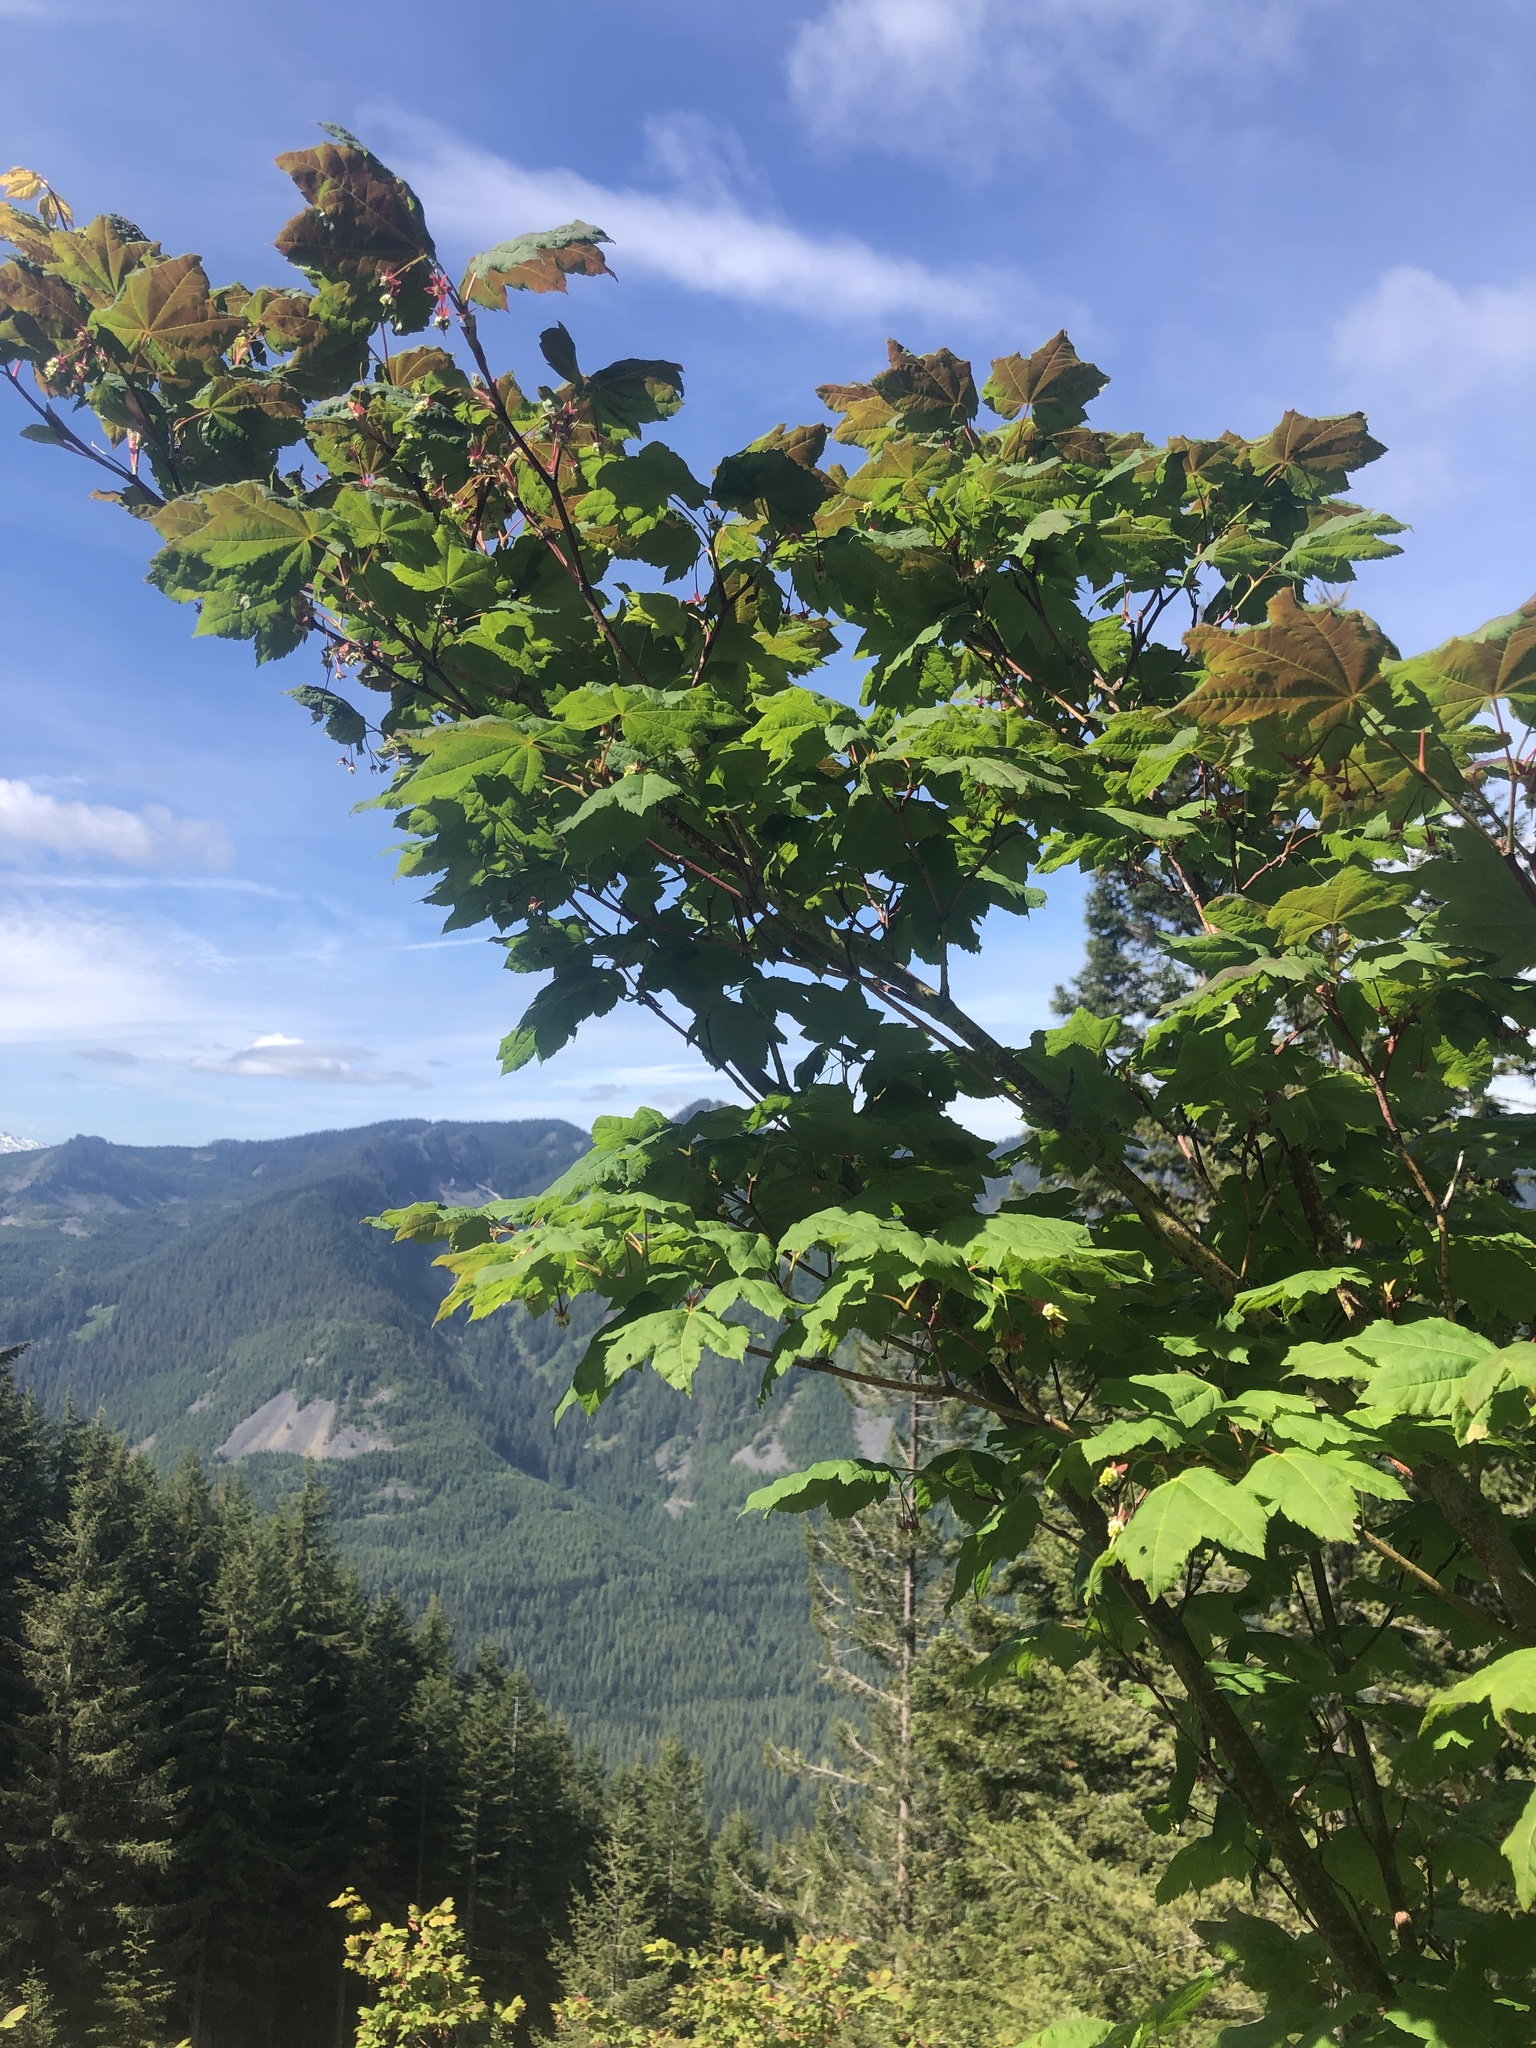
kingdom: Plantae
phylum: Tracheophyta
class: Magnoliopsida
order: Sapindales
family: Sapindaceae
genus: Acer
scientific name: Acer circinatum
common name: Vine maple
